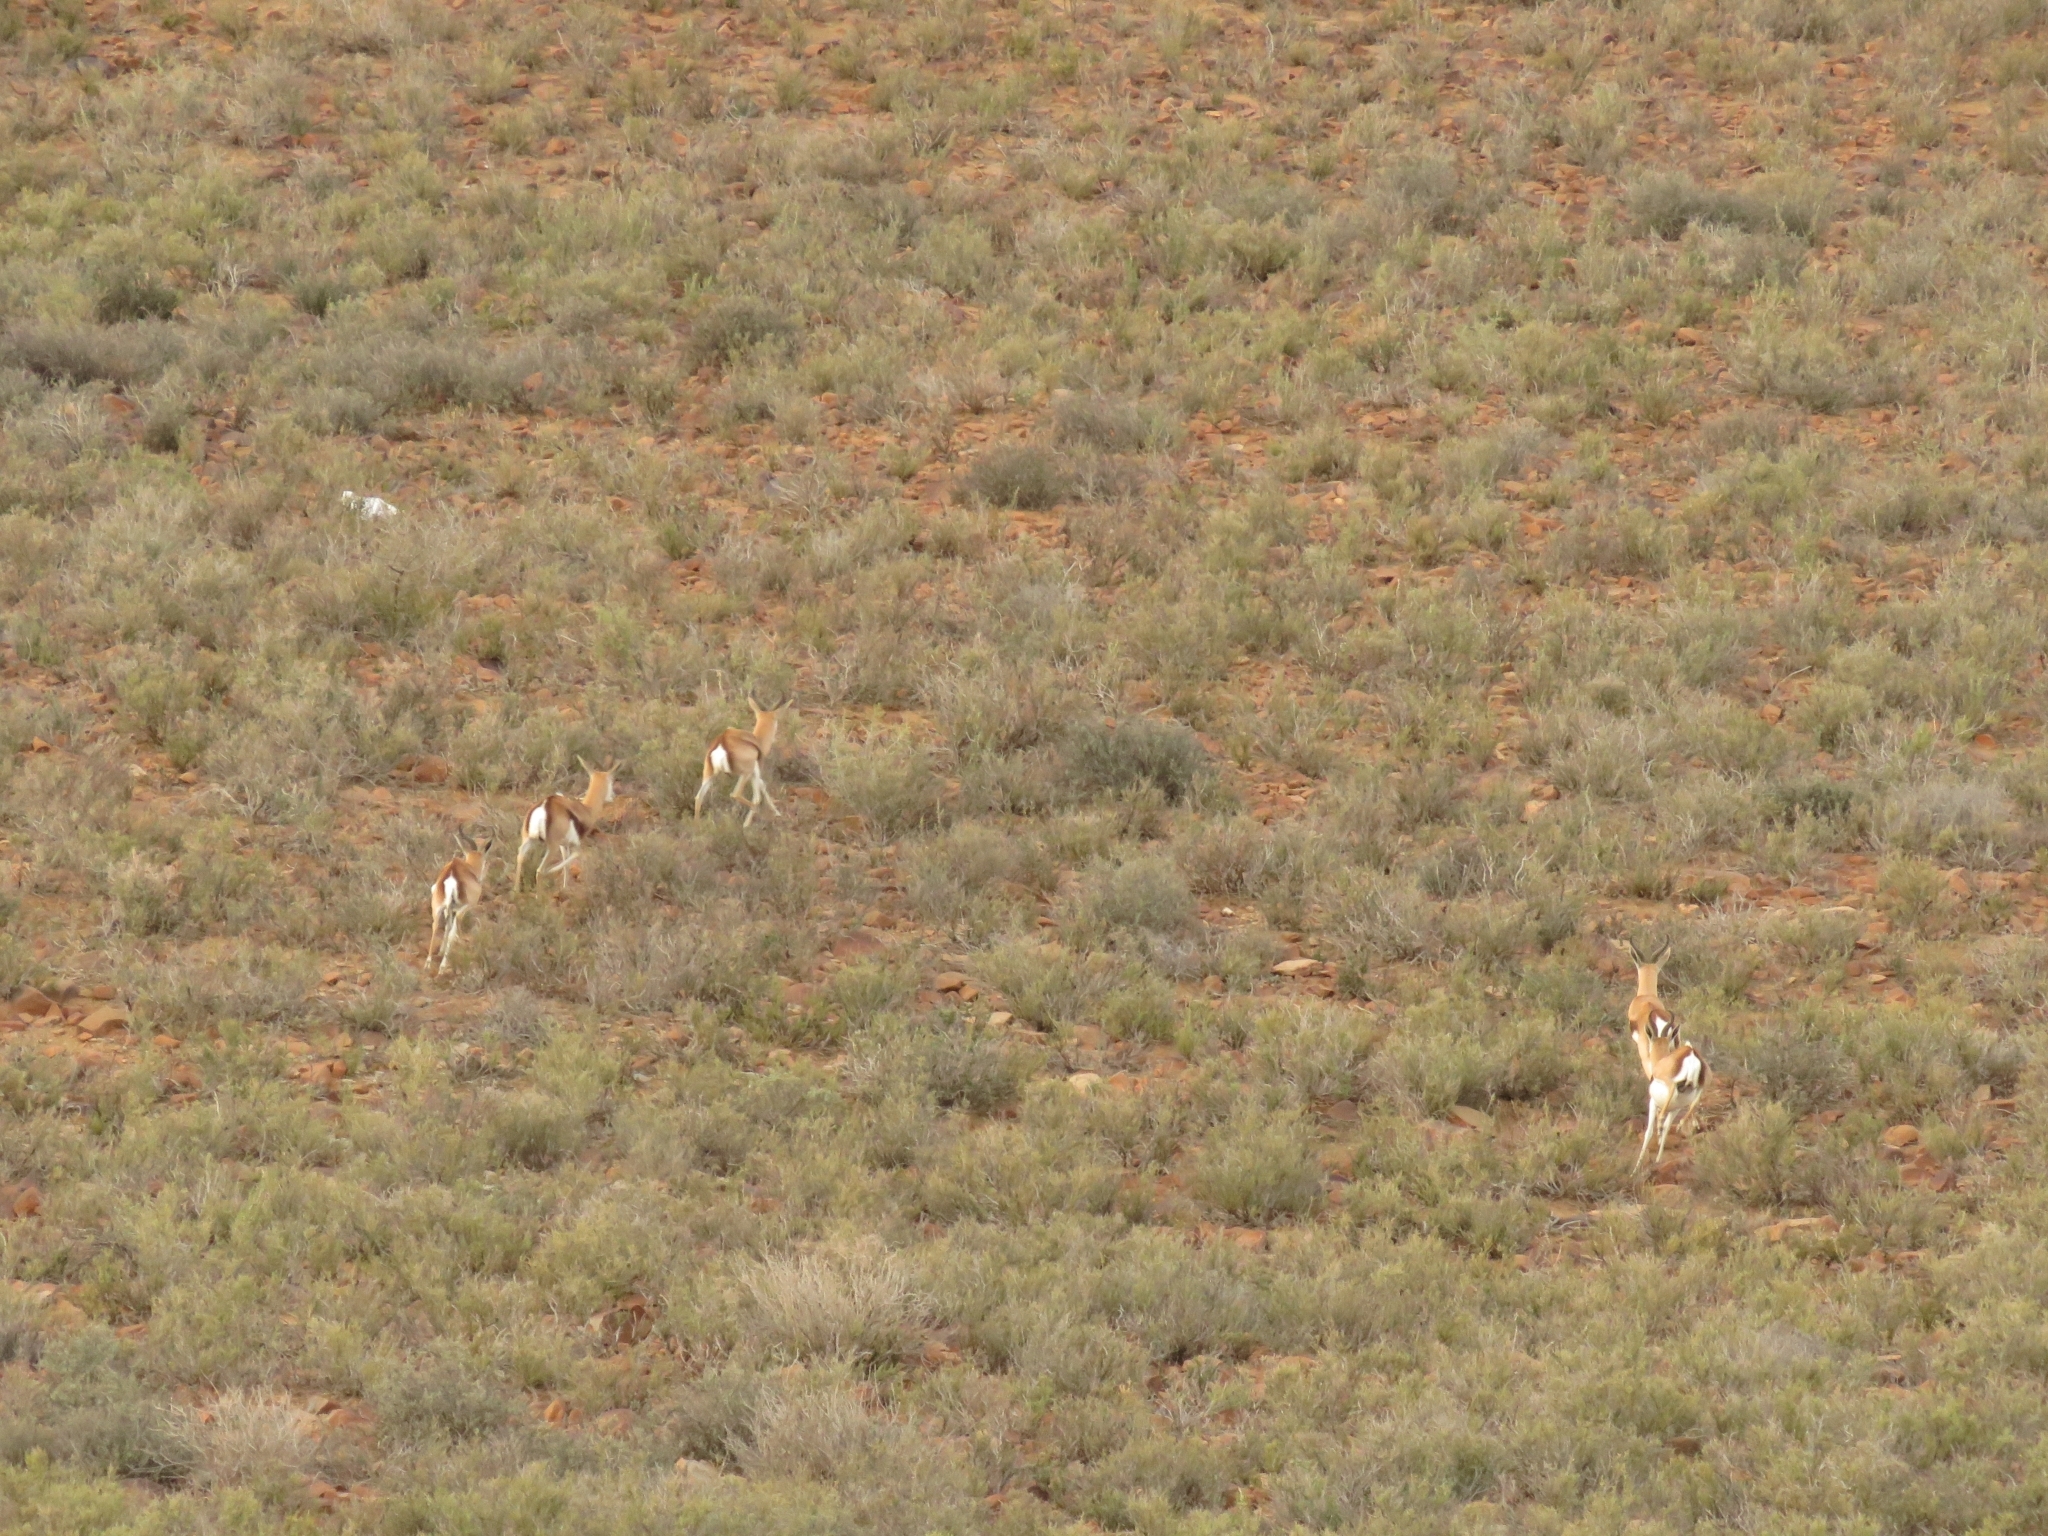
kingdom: Animalia
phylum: Chordata
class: Mammalia
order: Artiodactyla
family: Bovidae
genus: Antidorcas
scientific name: Antidorcas marsupialis
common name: Springbok
